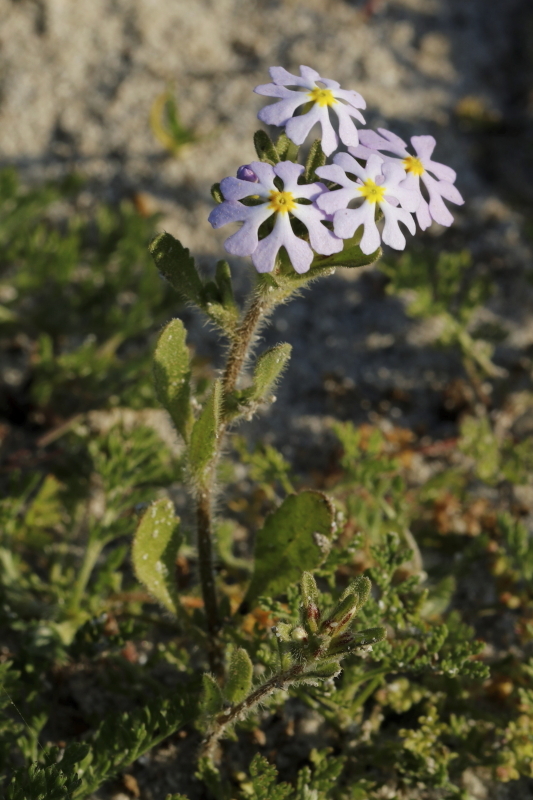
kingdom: Plantae
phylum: Tracheophyta
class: Magnoliopsida
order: Lamiales
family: Scrophulariaceae
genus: Zaluzianskya
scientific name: Zaluzianskya villosa
